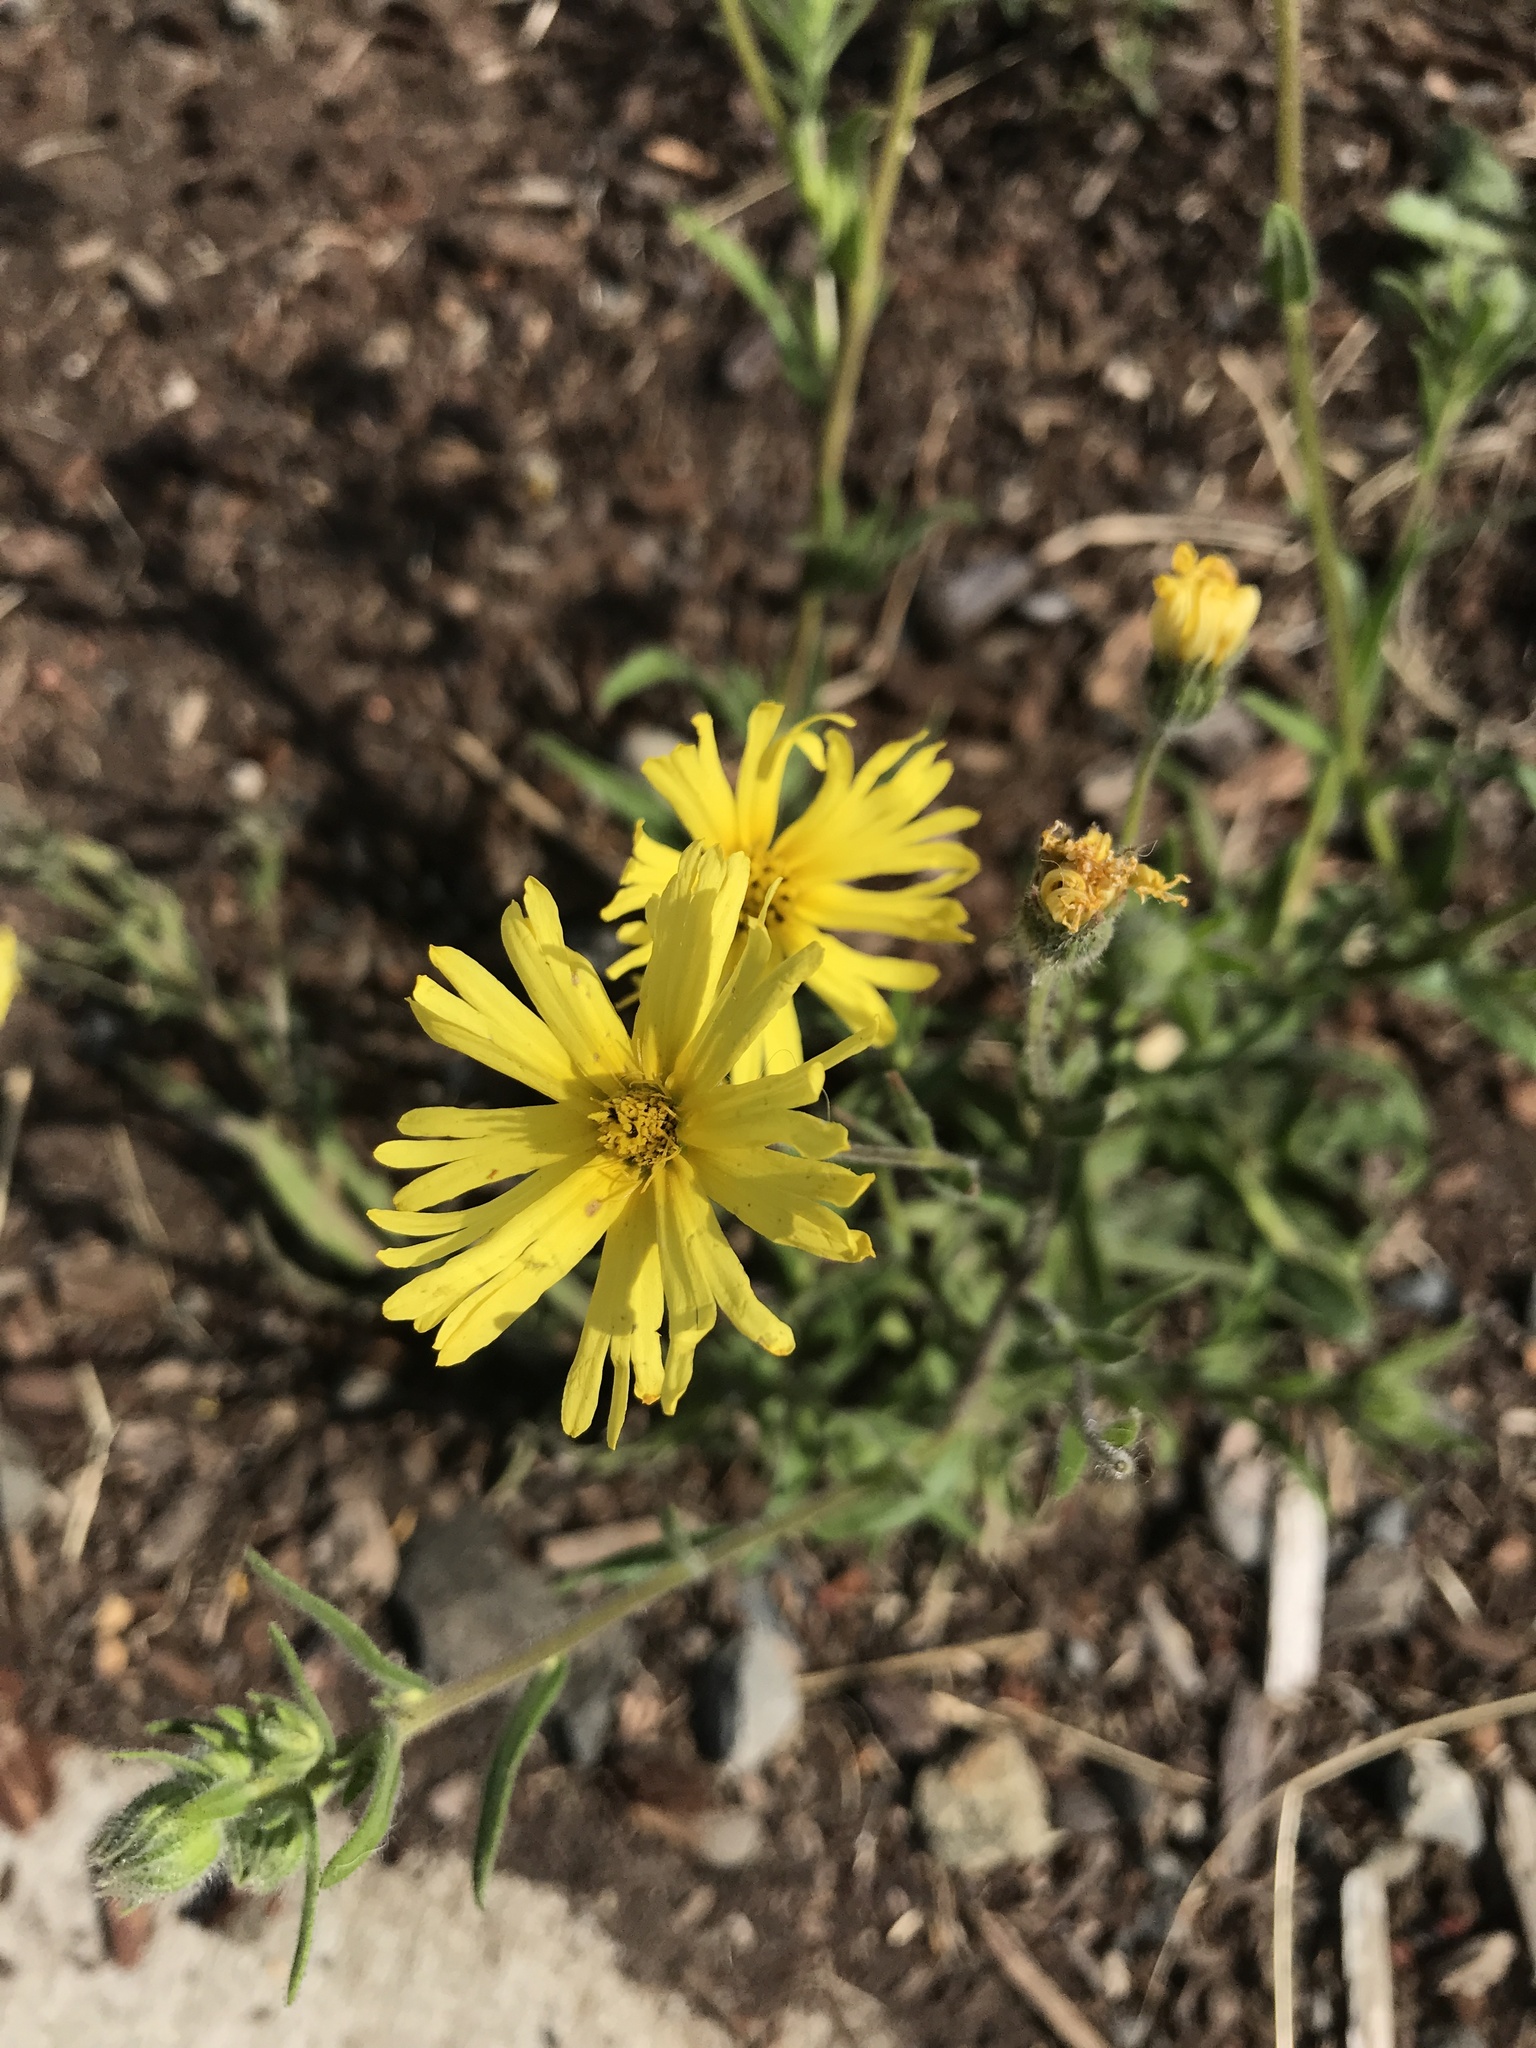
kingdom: Plantae
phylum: Tracheophyta
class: Magnoliopsida
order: Asterales
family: Asteraceae
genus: Madia
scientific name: Madia elegans
